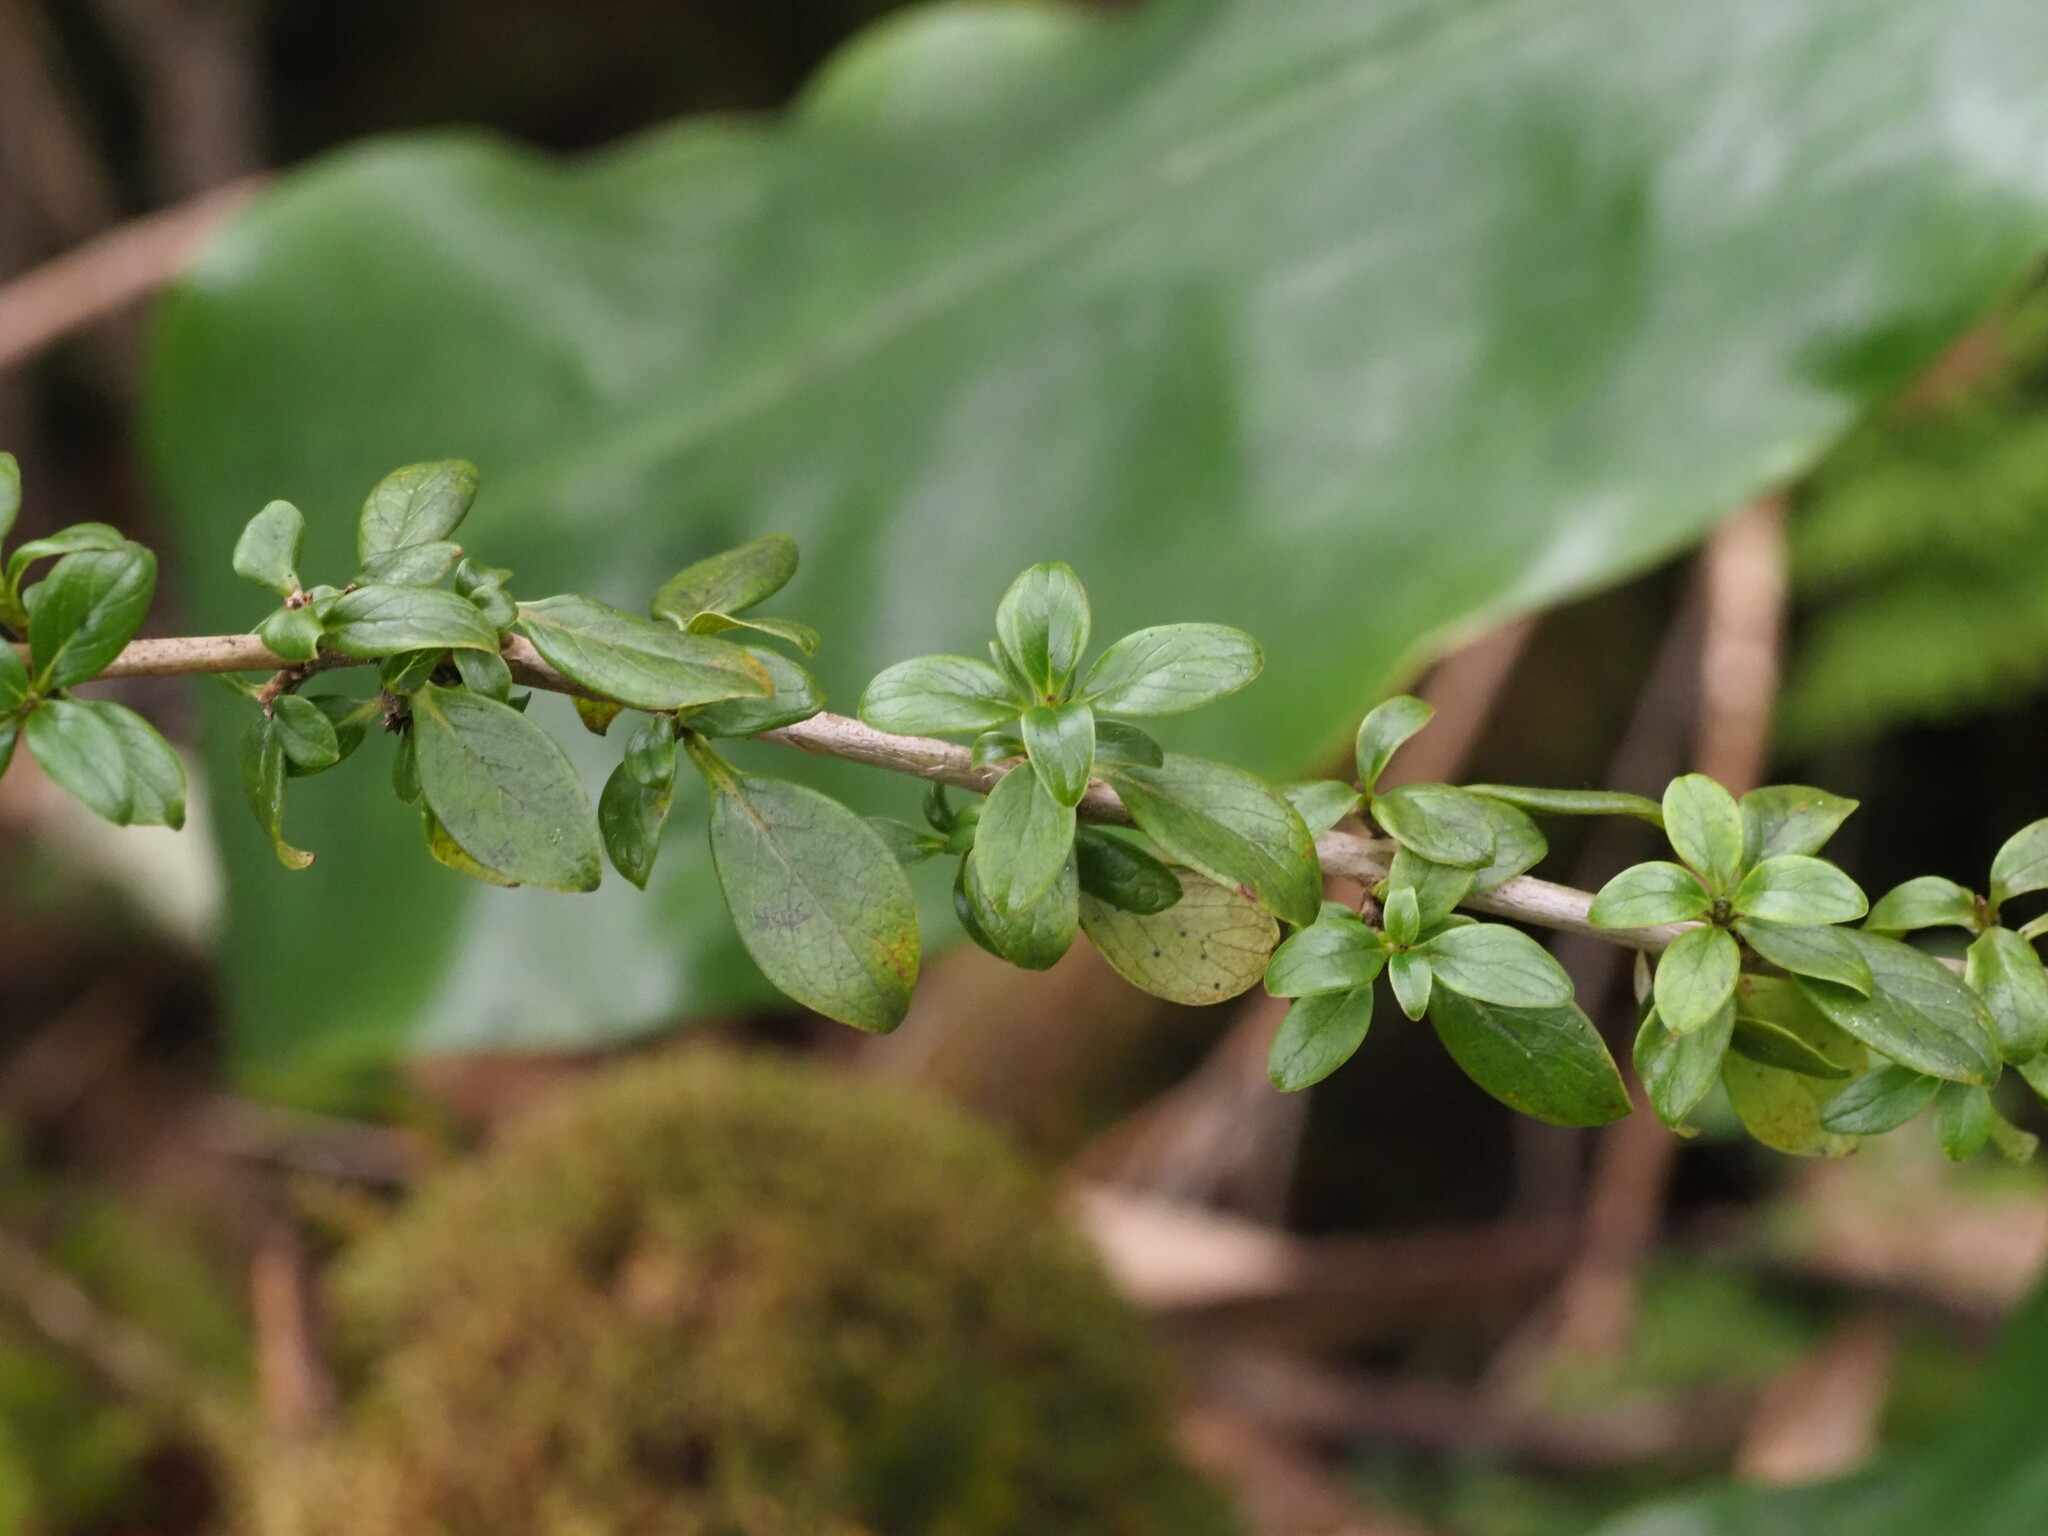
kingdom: Plantae
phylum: Tracheophyta
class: Magnoliopsida
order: Gentianales
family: Rubiaceae
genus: Coprosma
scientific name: Coprosma elliptica
